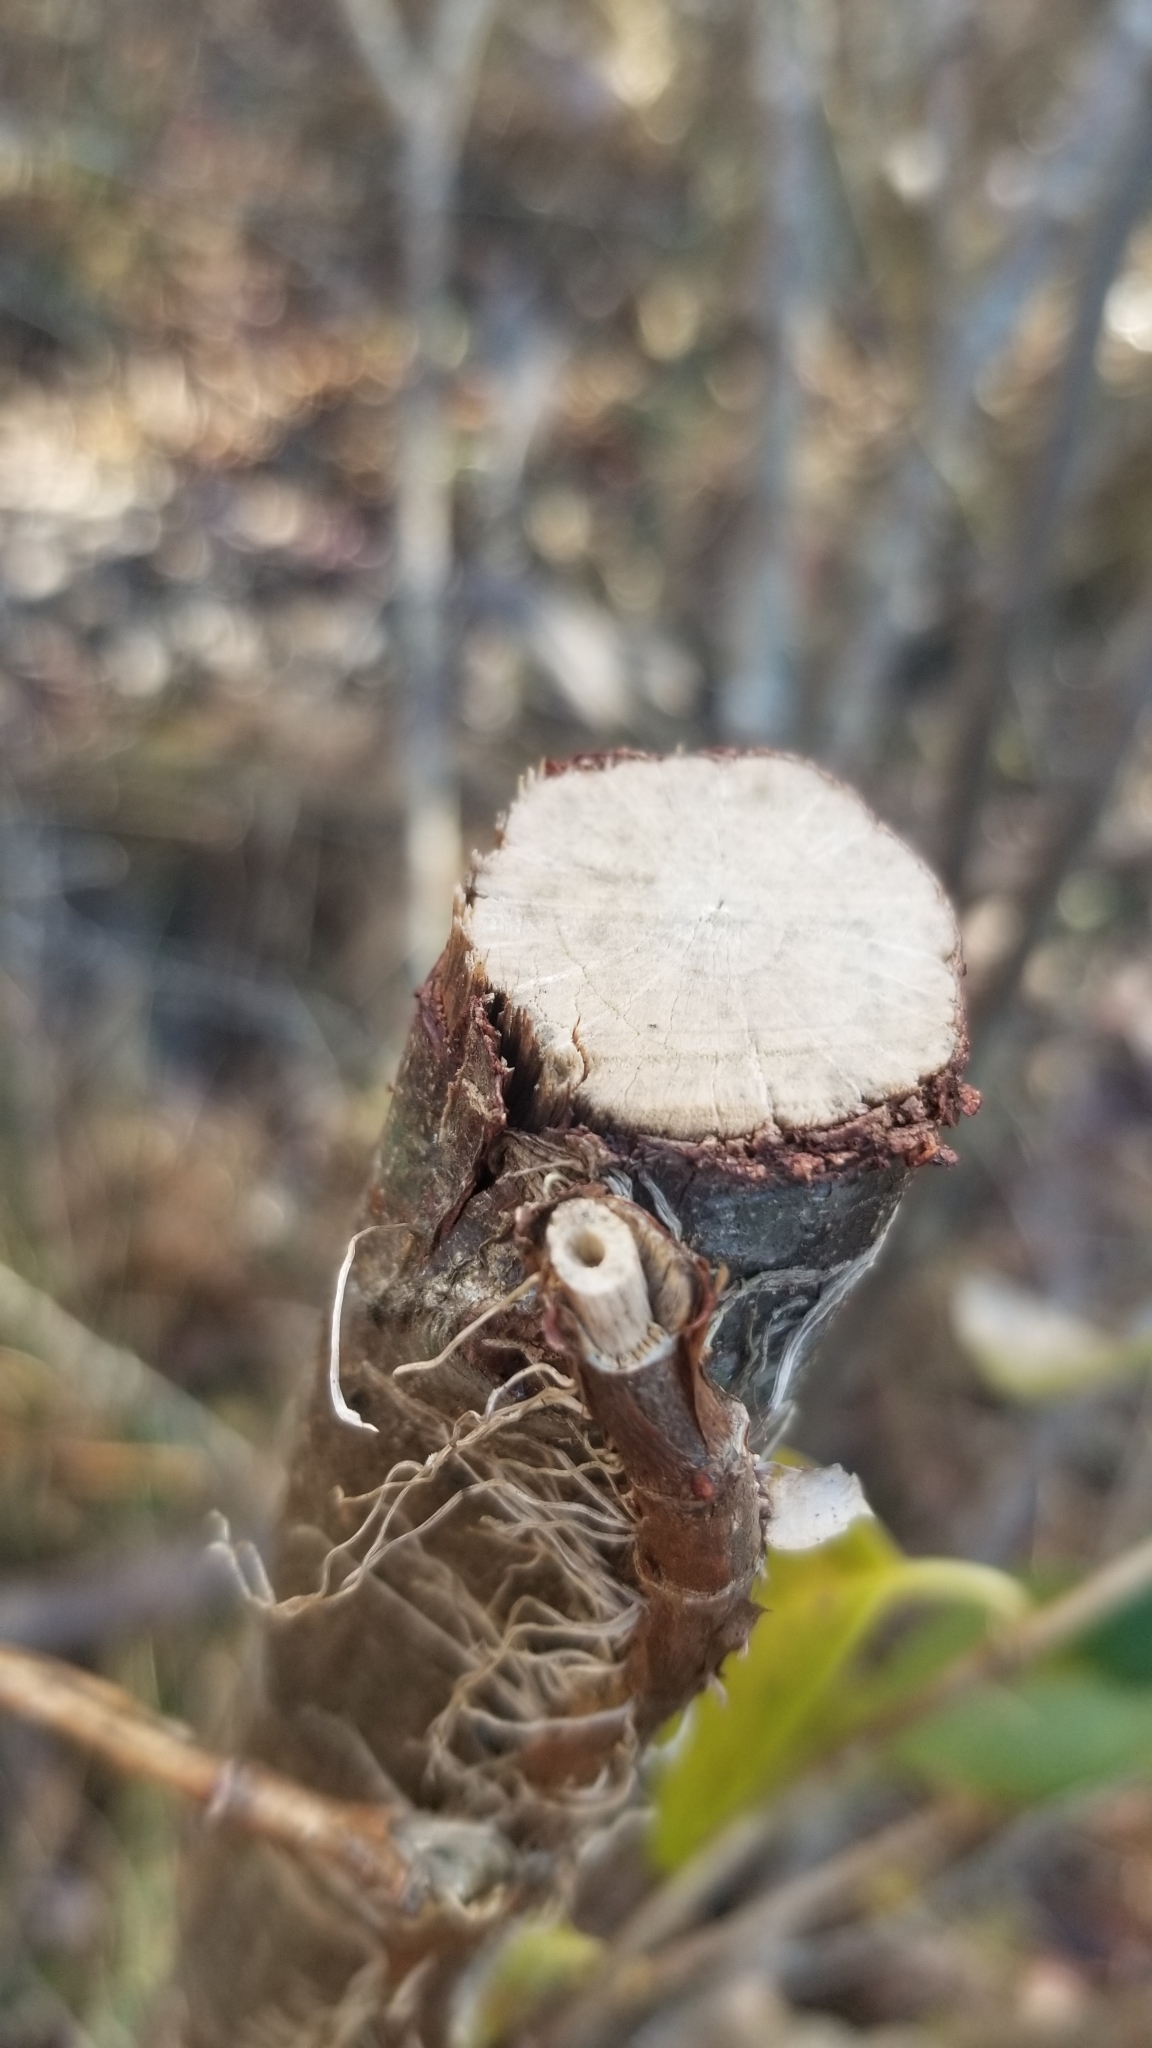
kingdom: Plantae
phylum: Tracheophyta
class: Magnoliopsida
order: Cornales
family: Hydrangeaceae
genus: Hydrangea
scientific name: Hydrangea barbara
